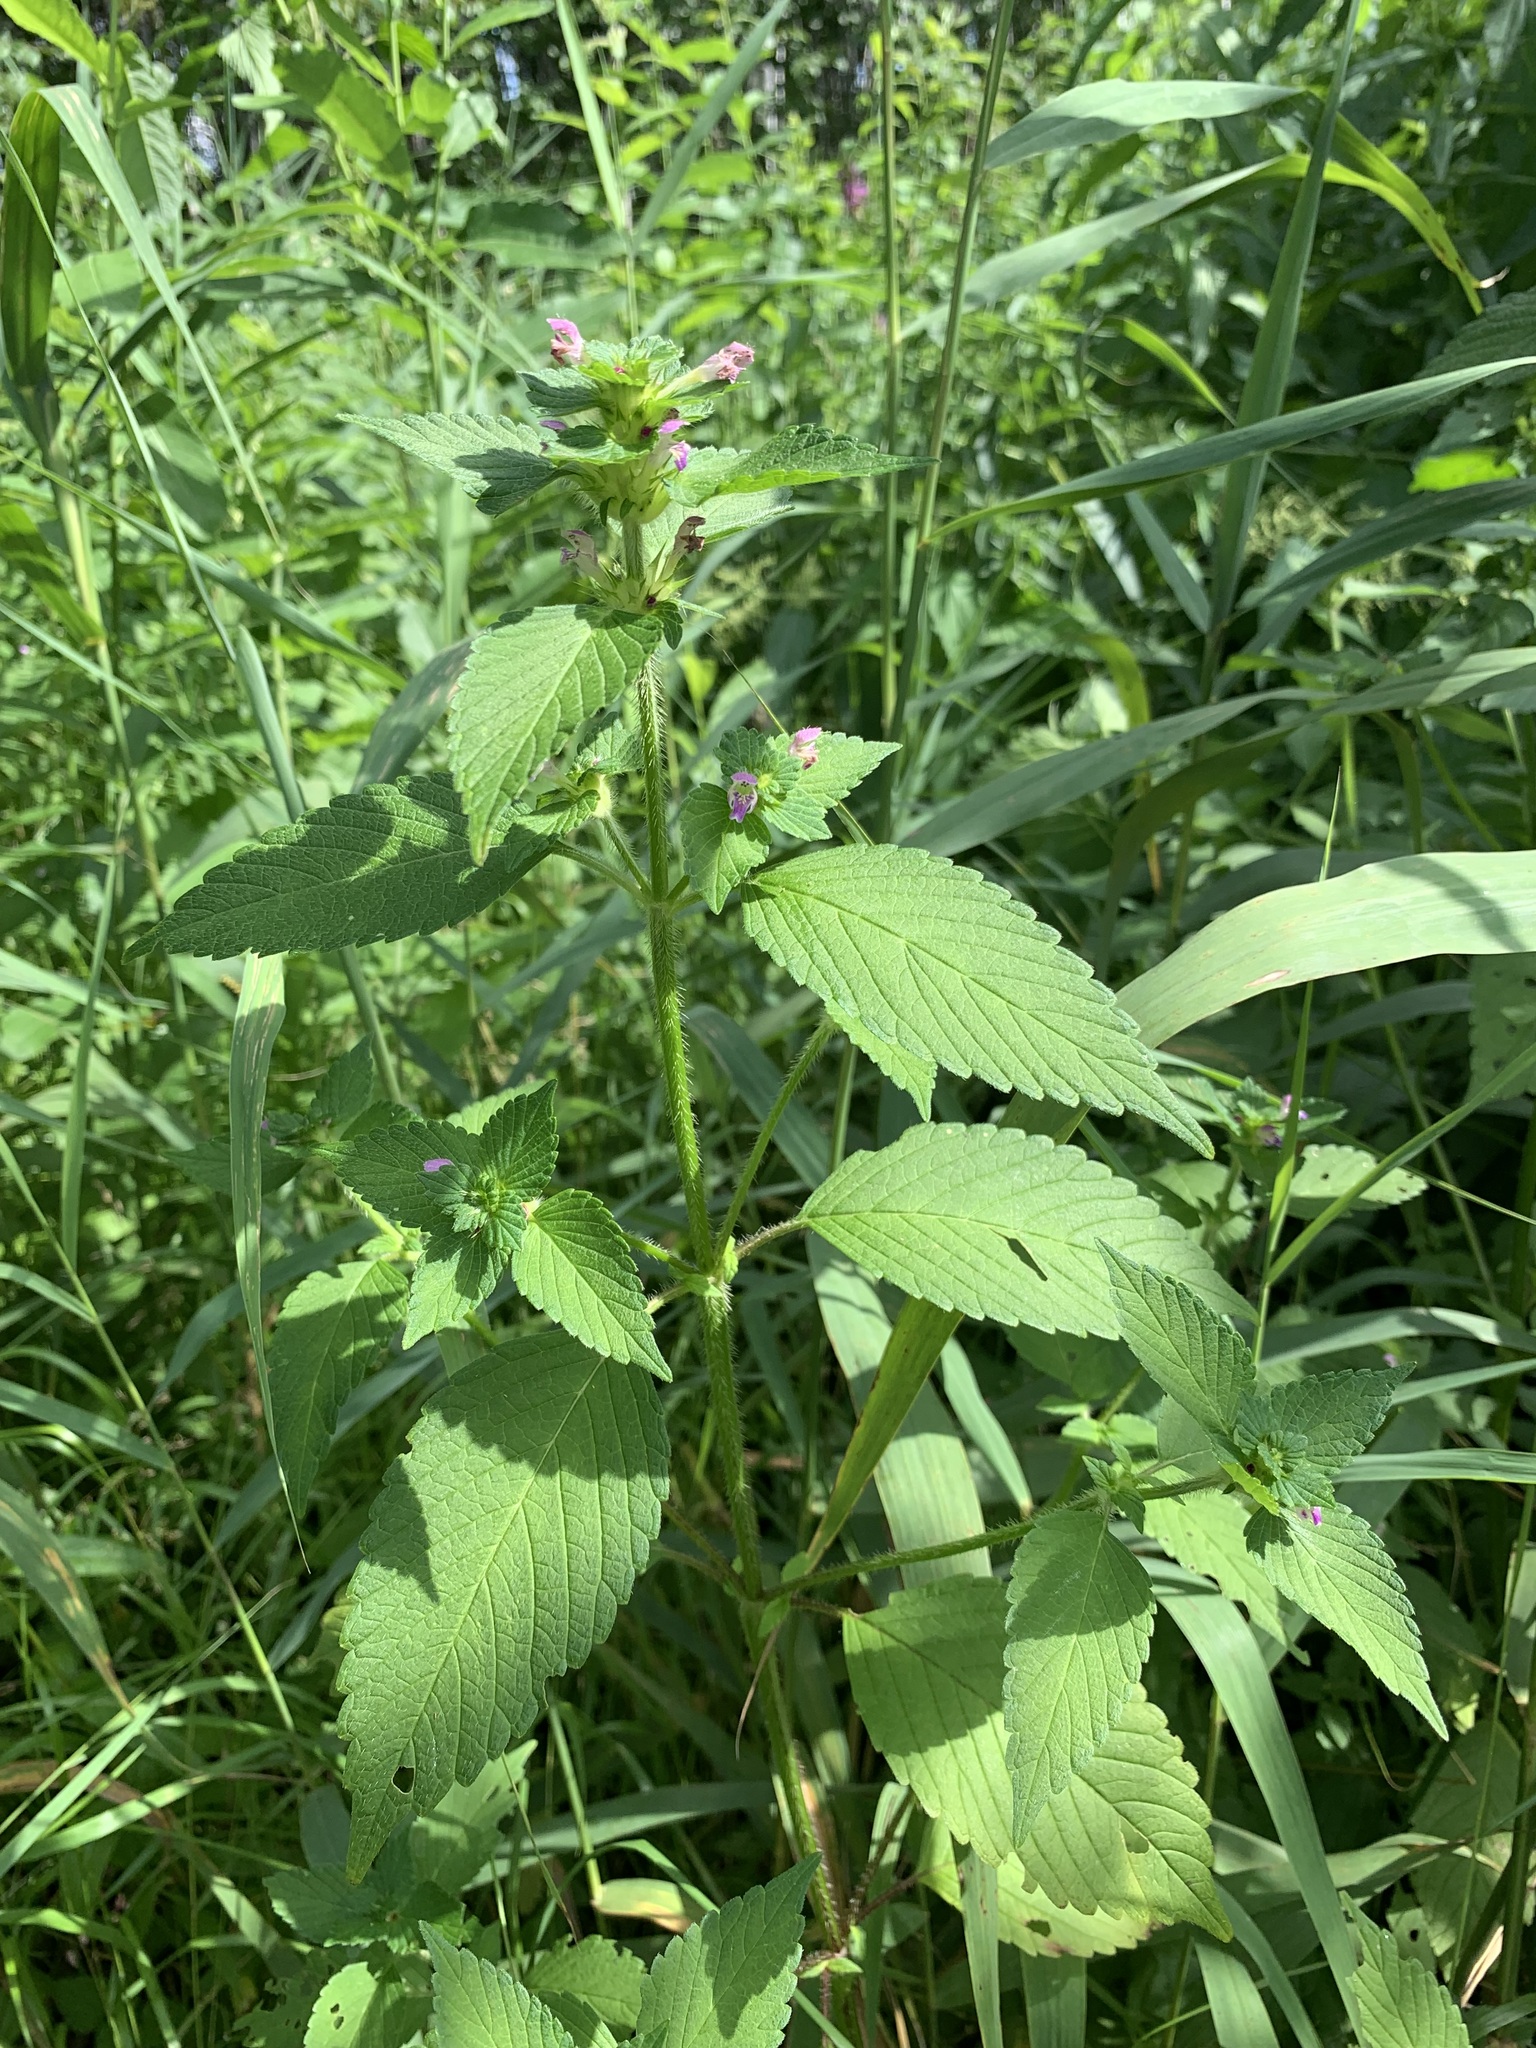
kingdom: Plantae
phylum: Tracheophyta
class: Magnoliopsida
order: Lamiales
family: Lamiaceae
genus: Galeopsis
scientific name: Galeopsis bifida
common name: Bifid hemp-nettle
